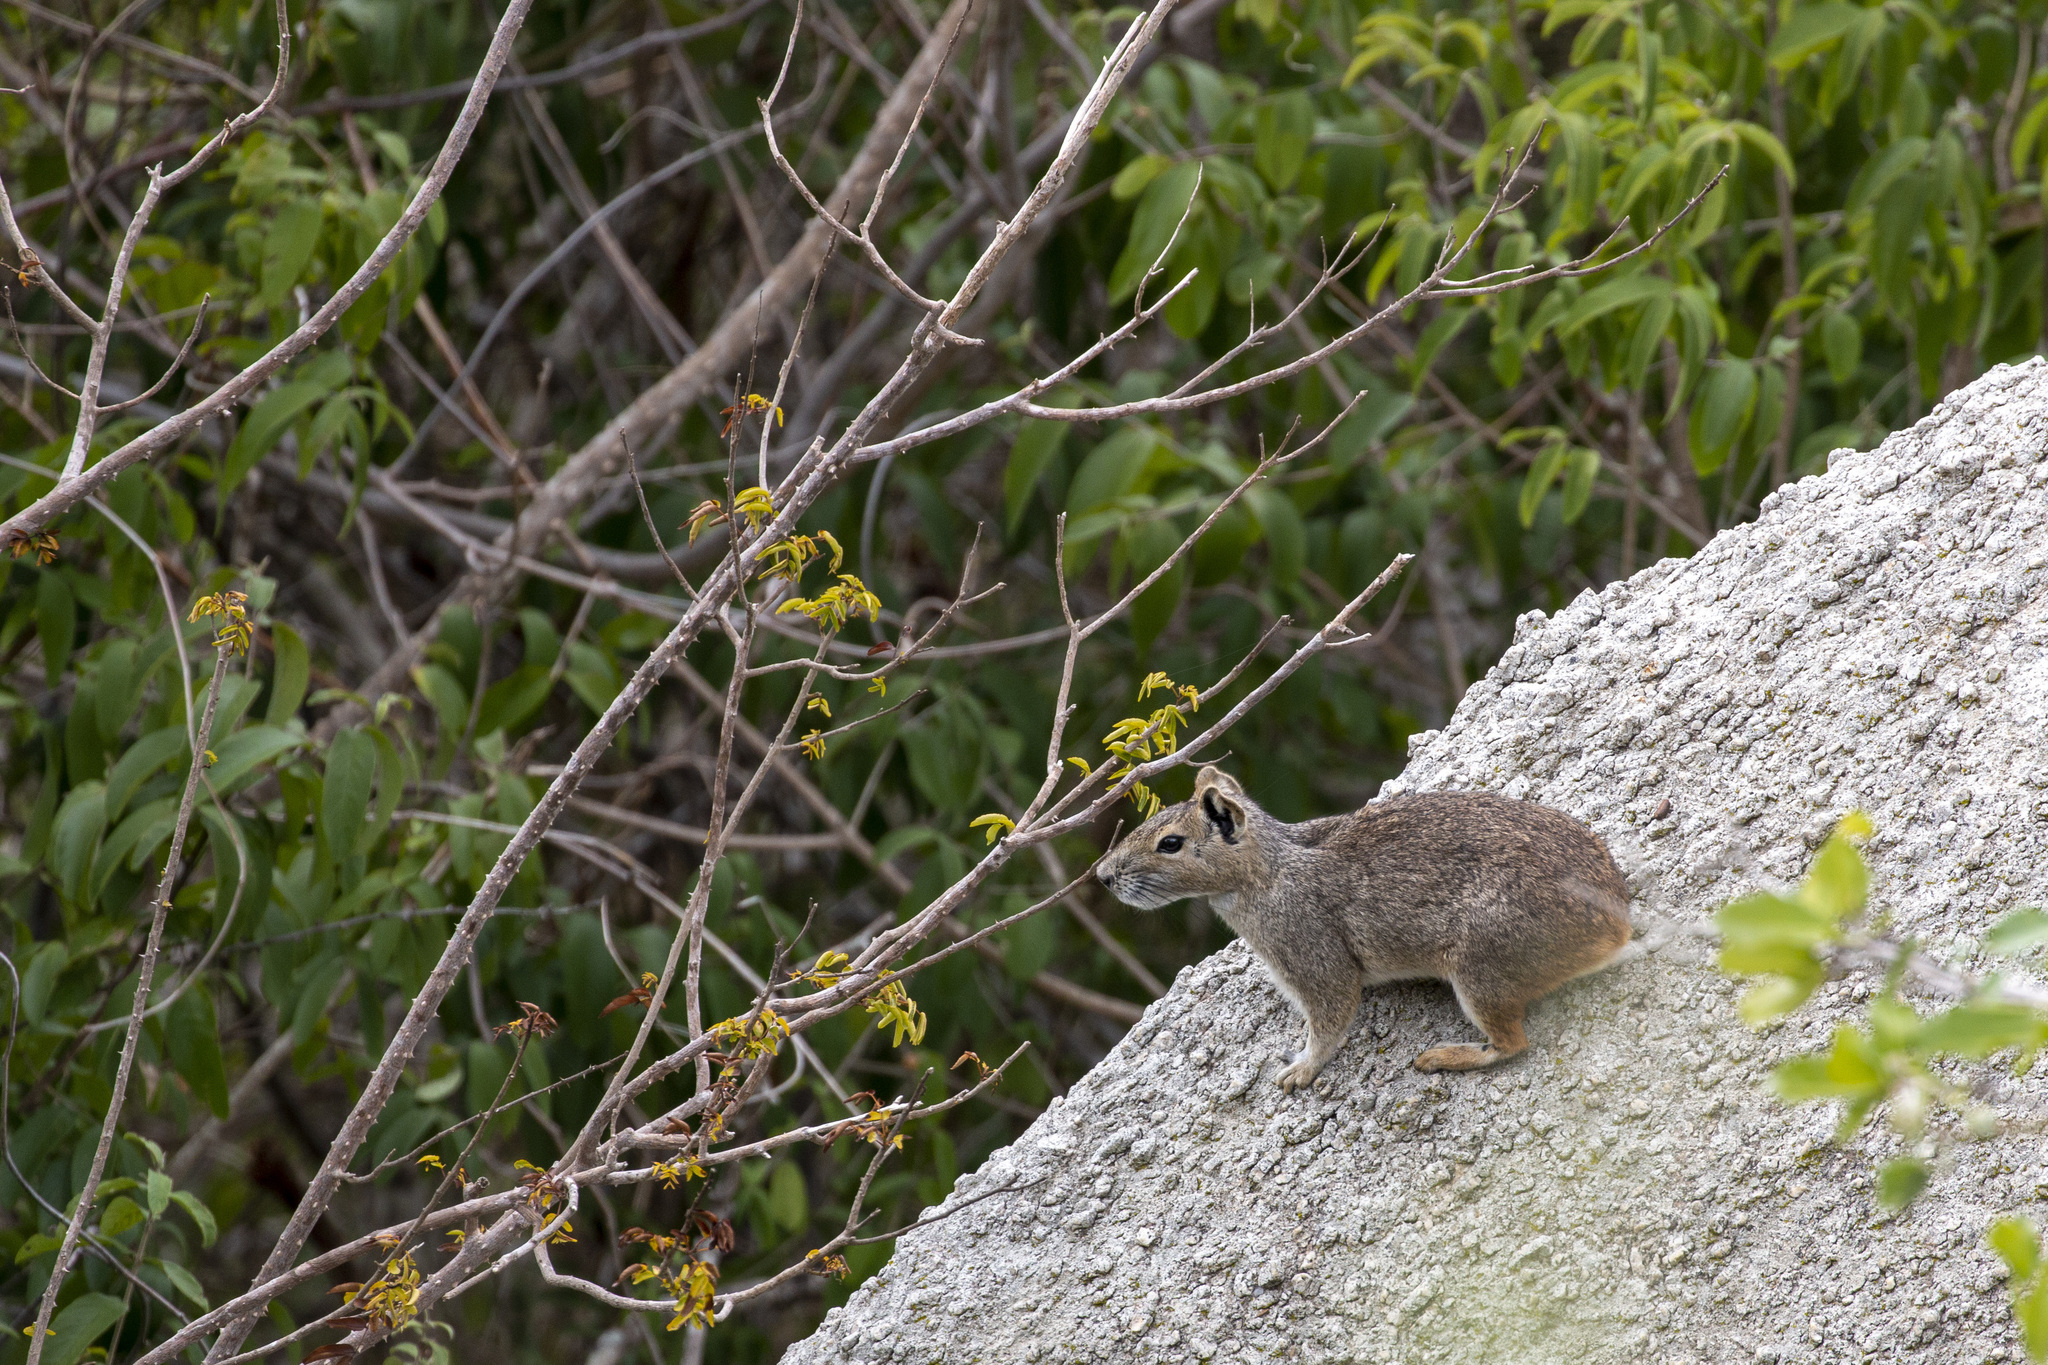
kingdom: Animalia
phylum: Chordata
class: Mammalia
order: Rodentia
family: Caviidae
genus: Kerodon
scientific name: Kerodon rupestris
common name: Rock cavy
